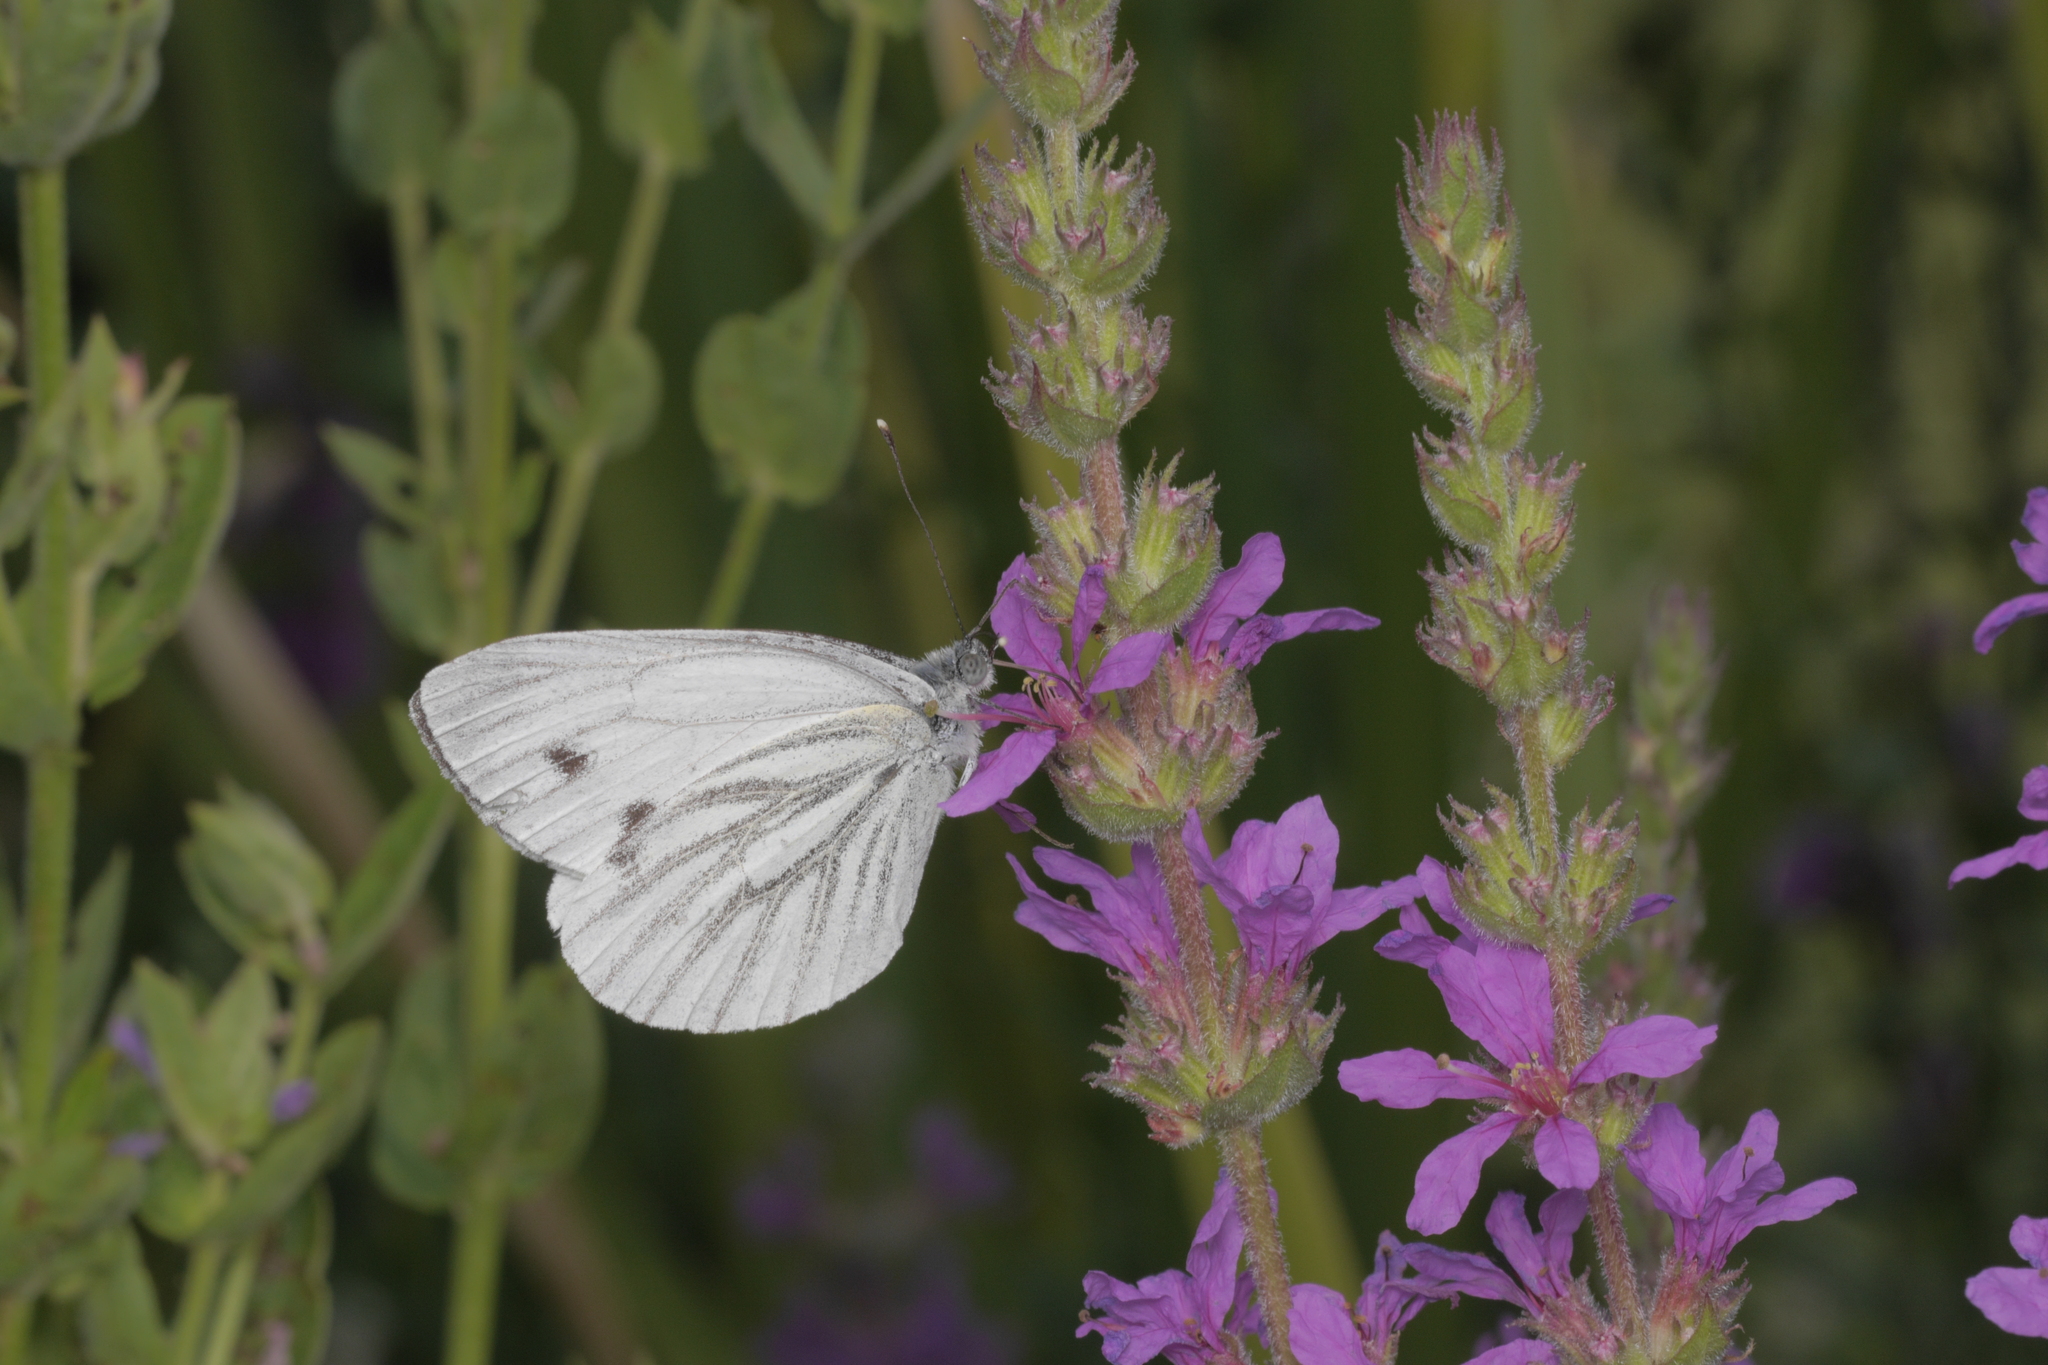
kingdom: Animalia
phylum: Arthropoda
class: Insecta
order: Lepidoptera
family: Pieridae
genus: Pieris
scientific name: Pieris napi
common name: Green-veined white
